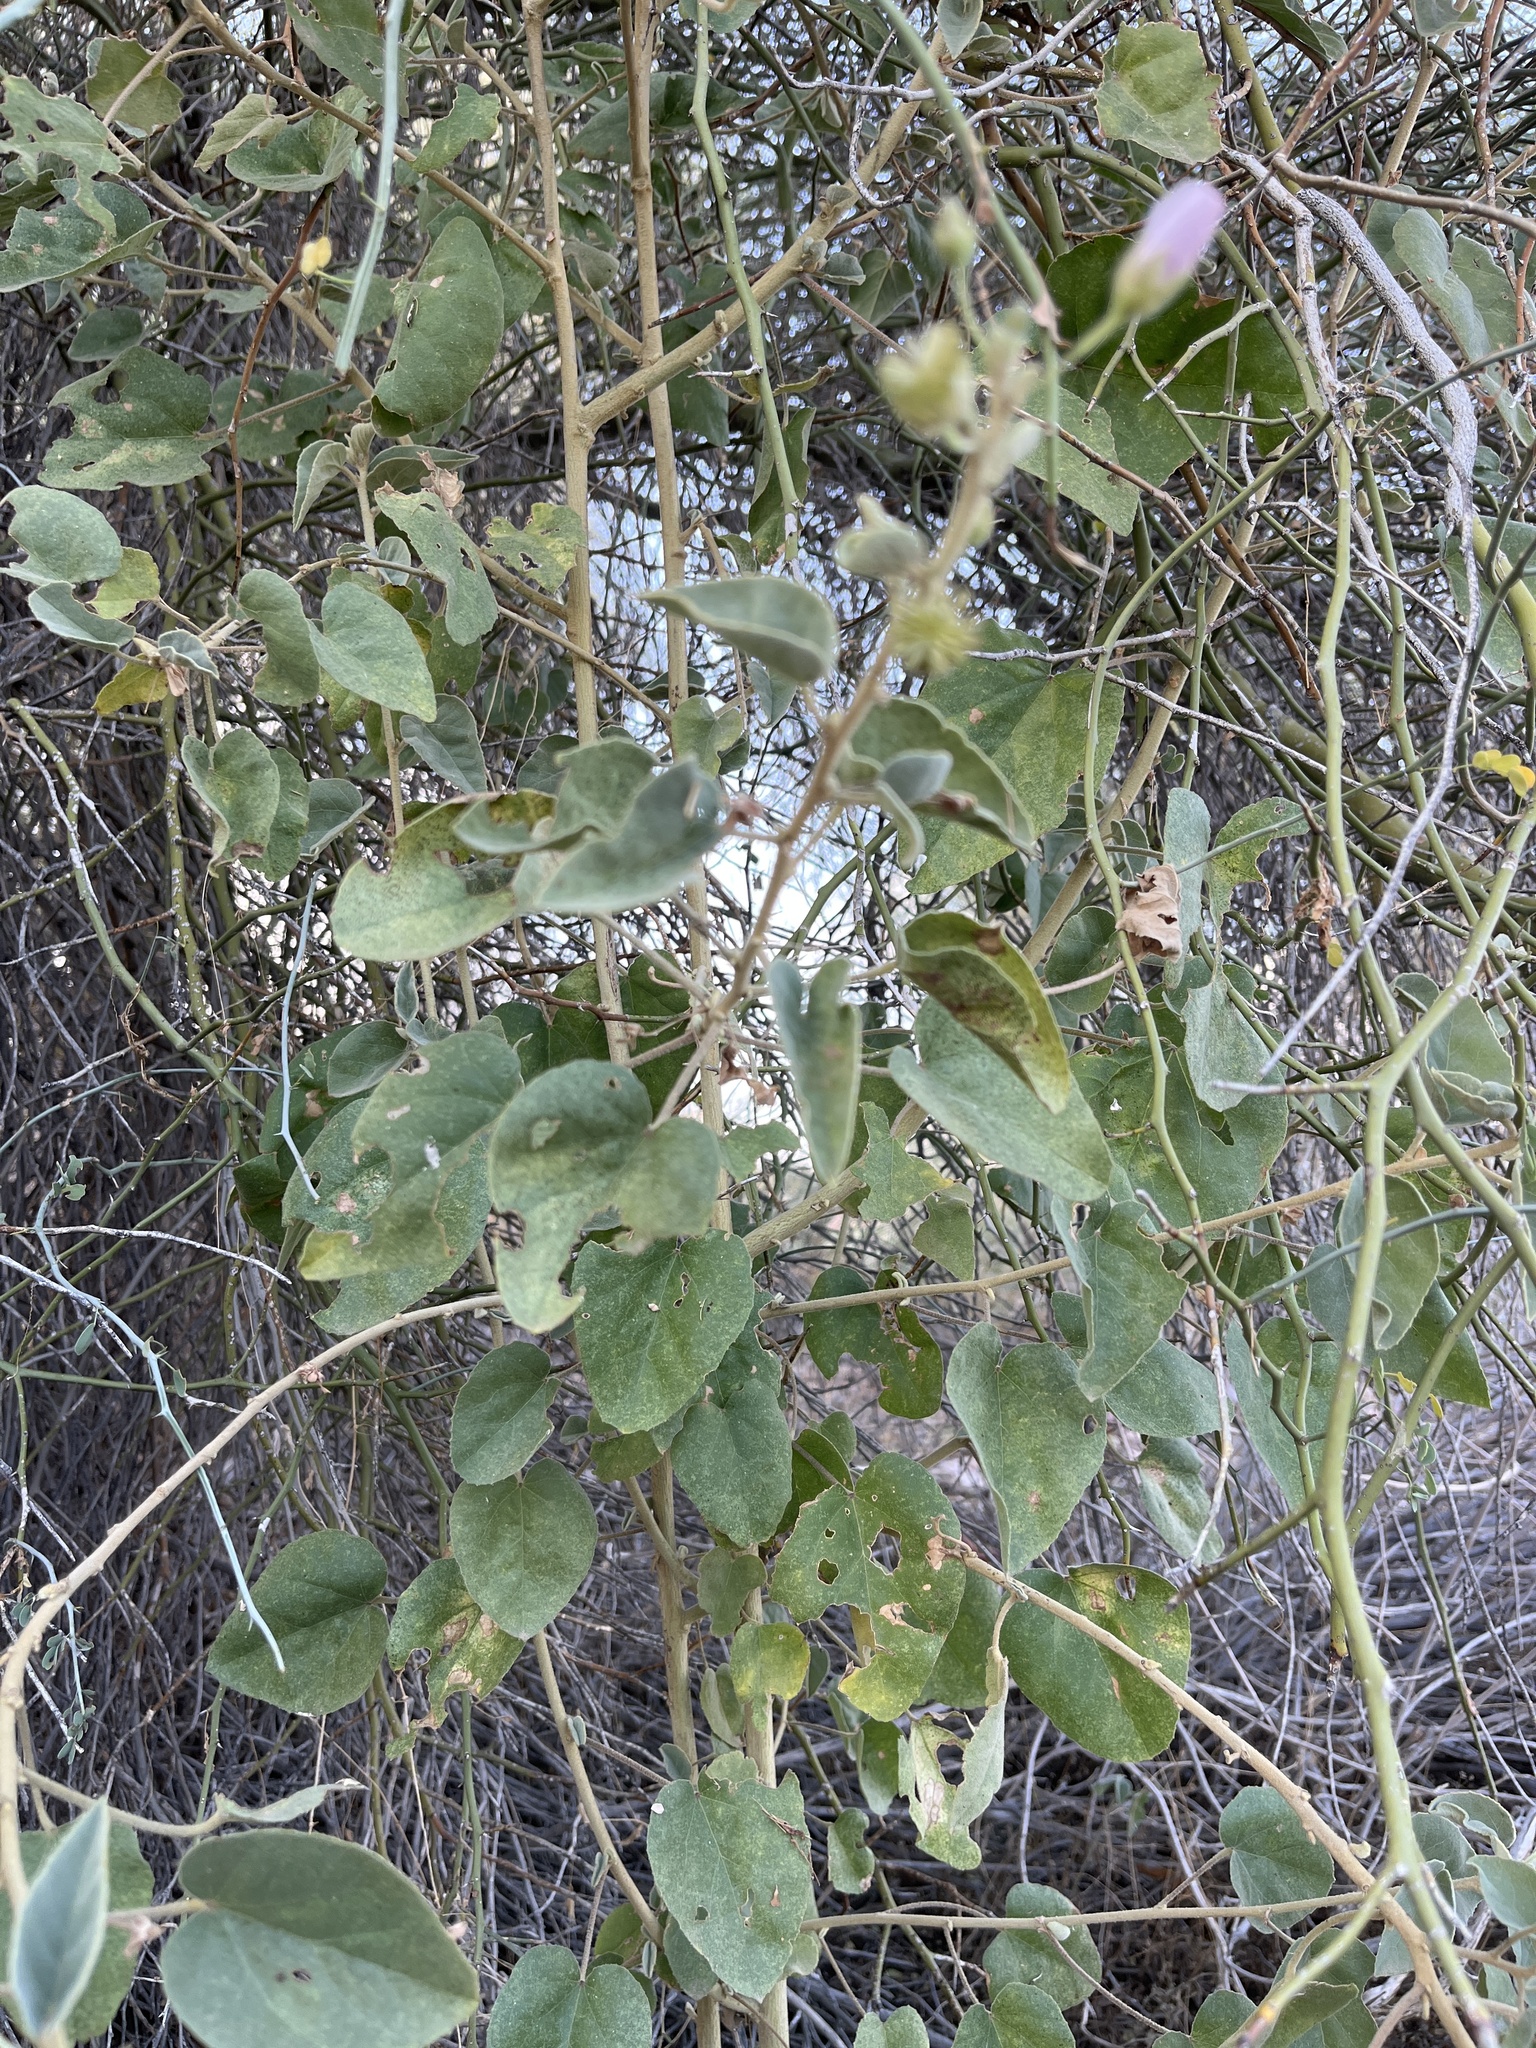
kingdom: Plantae
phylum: Tracheophyta
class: Magnoliopsida
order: Malvales
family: Malvaceae
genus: Horsfordia
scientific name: Horsfordia alata
